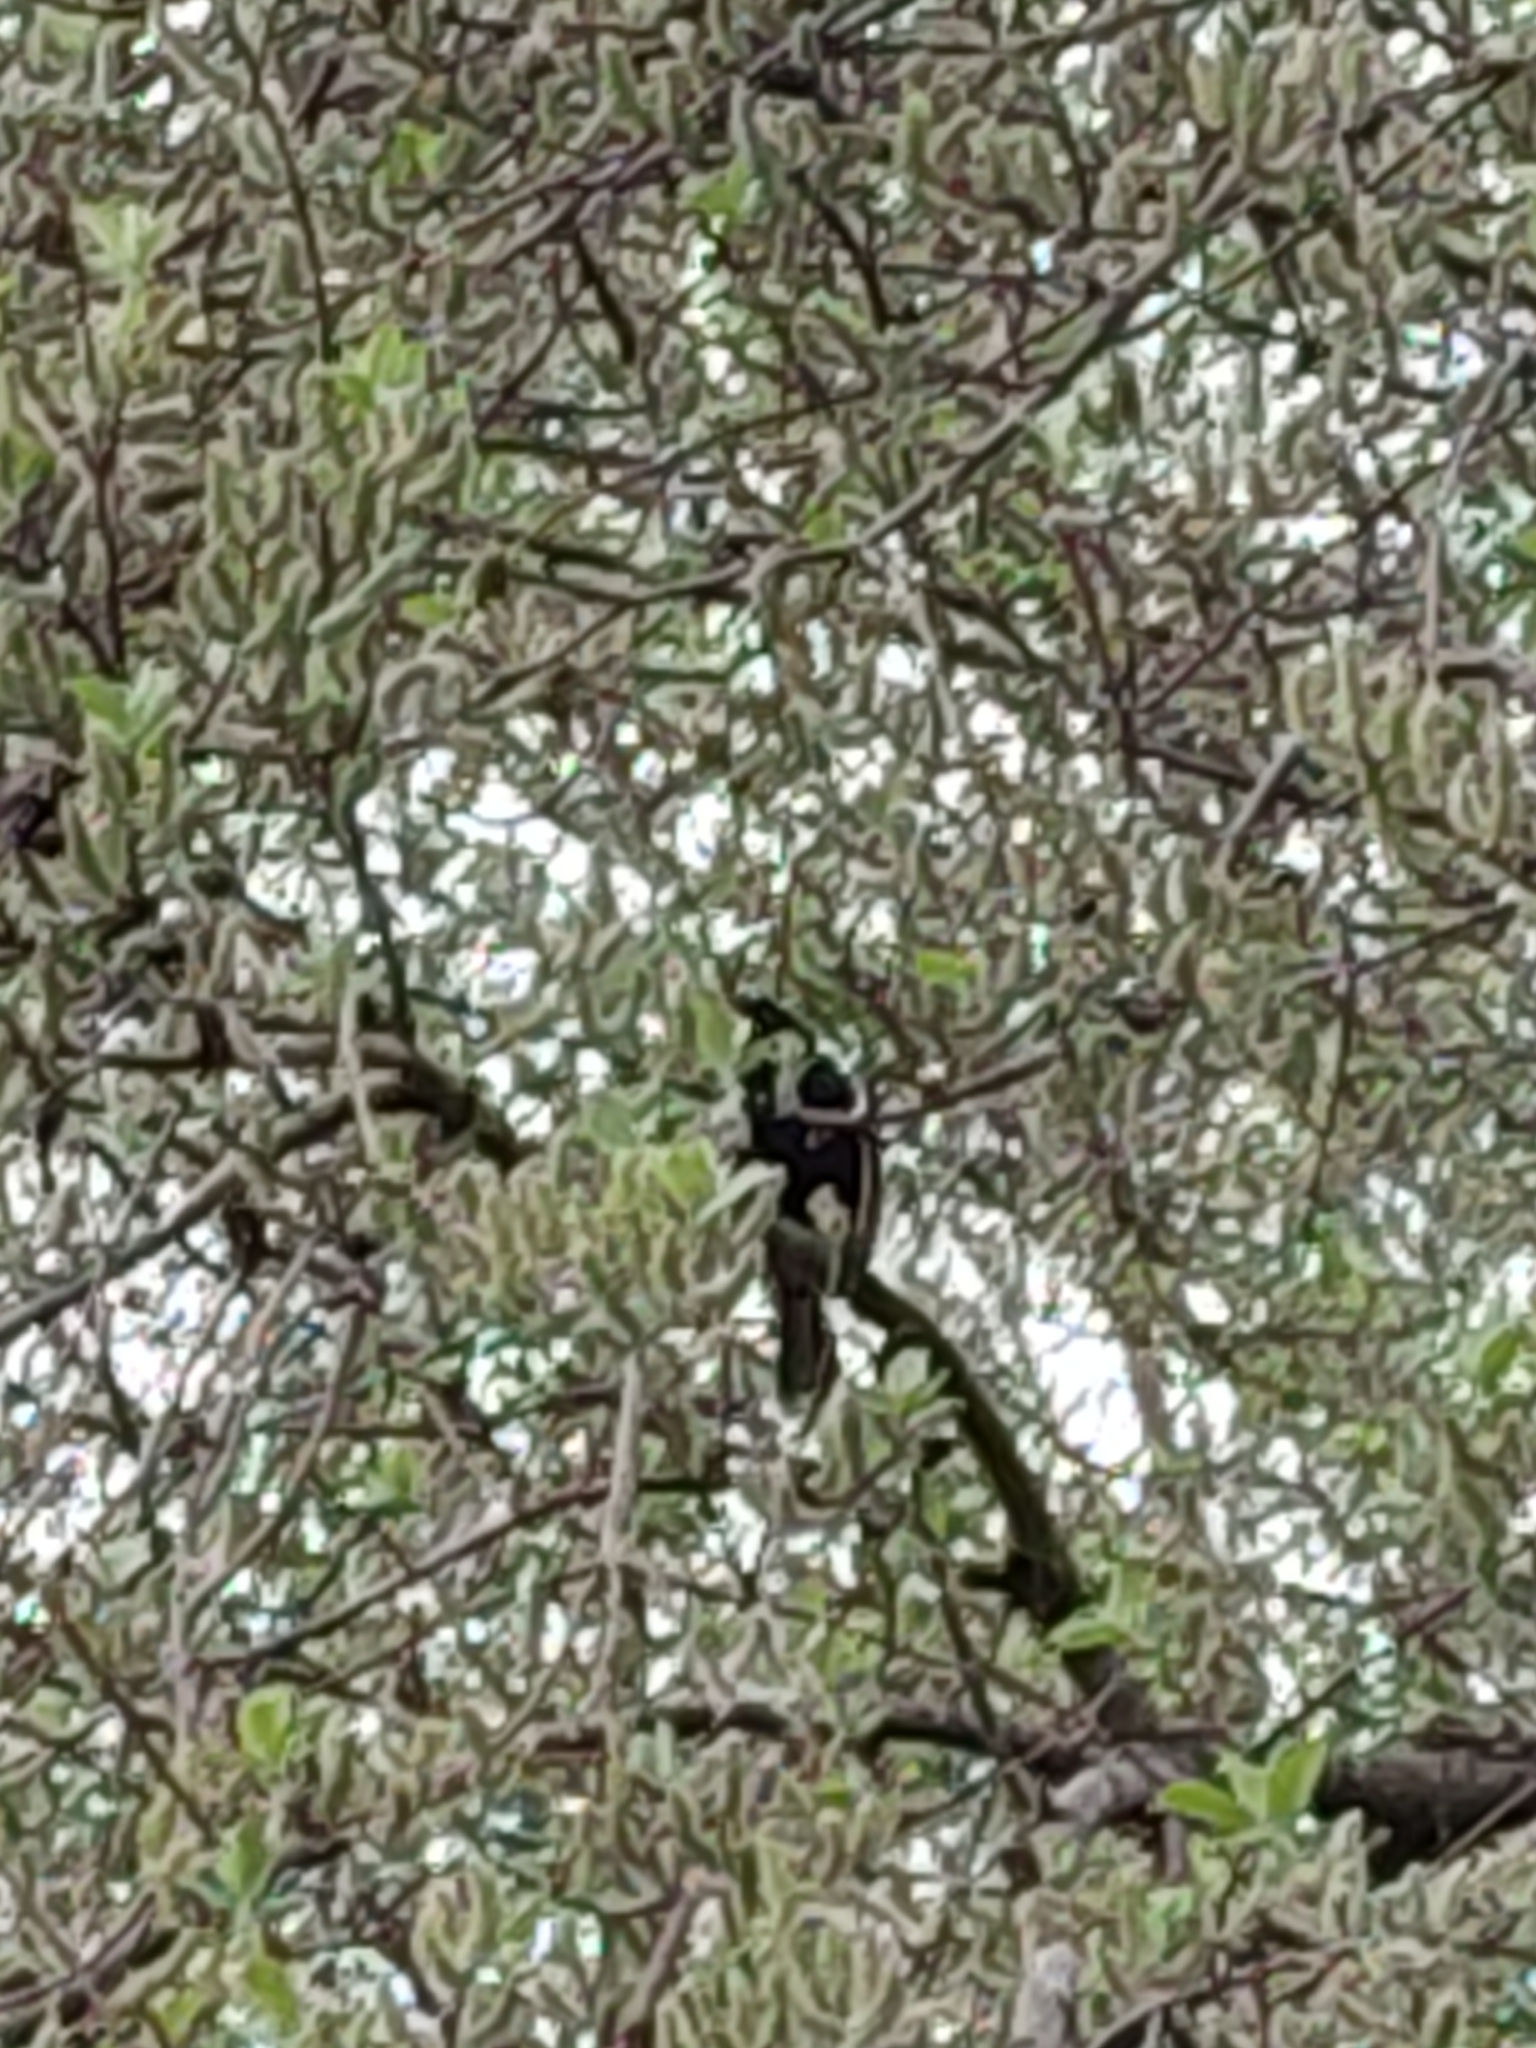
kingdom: Animalia
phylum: Chordata
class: Aves
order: Passeriformes
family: Turdidae
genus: Turdus
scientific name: Turdus merula
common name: Common blackbird
